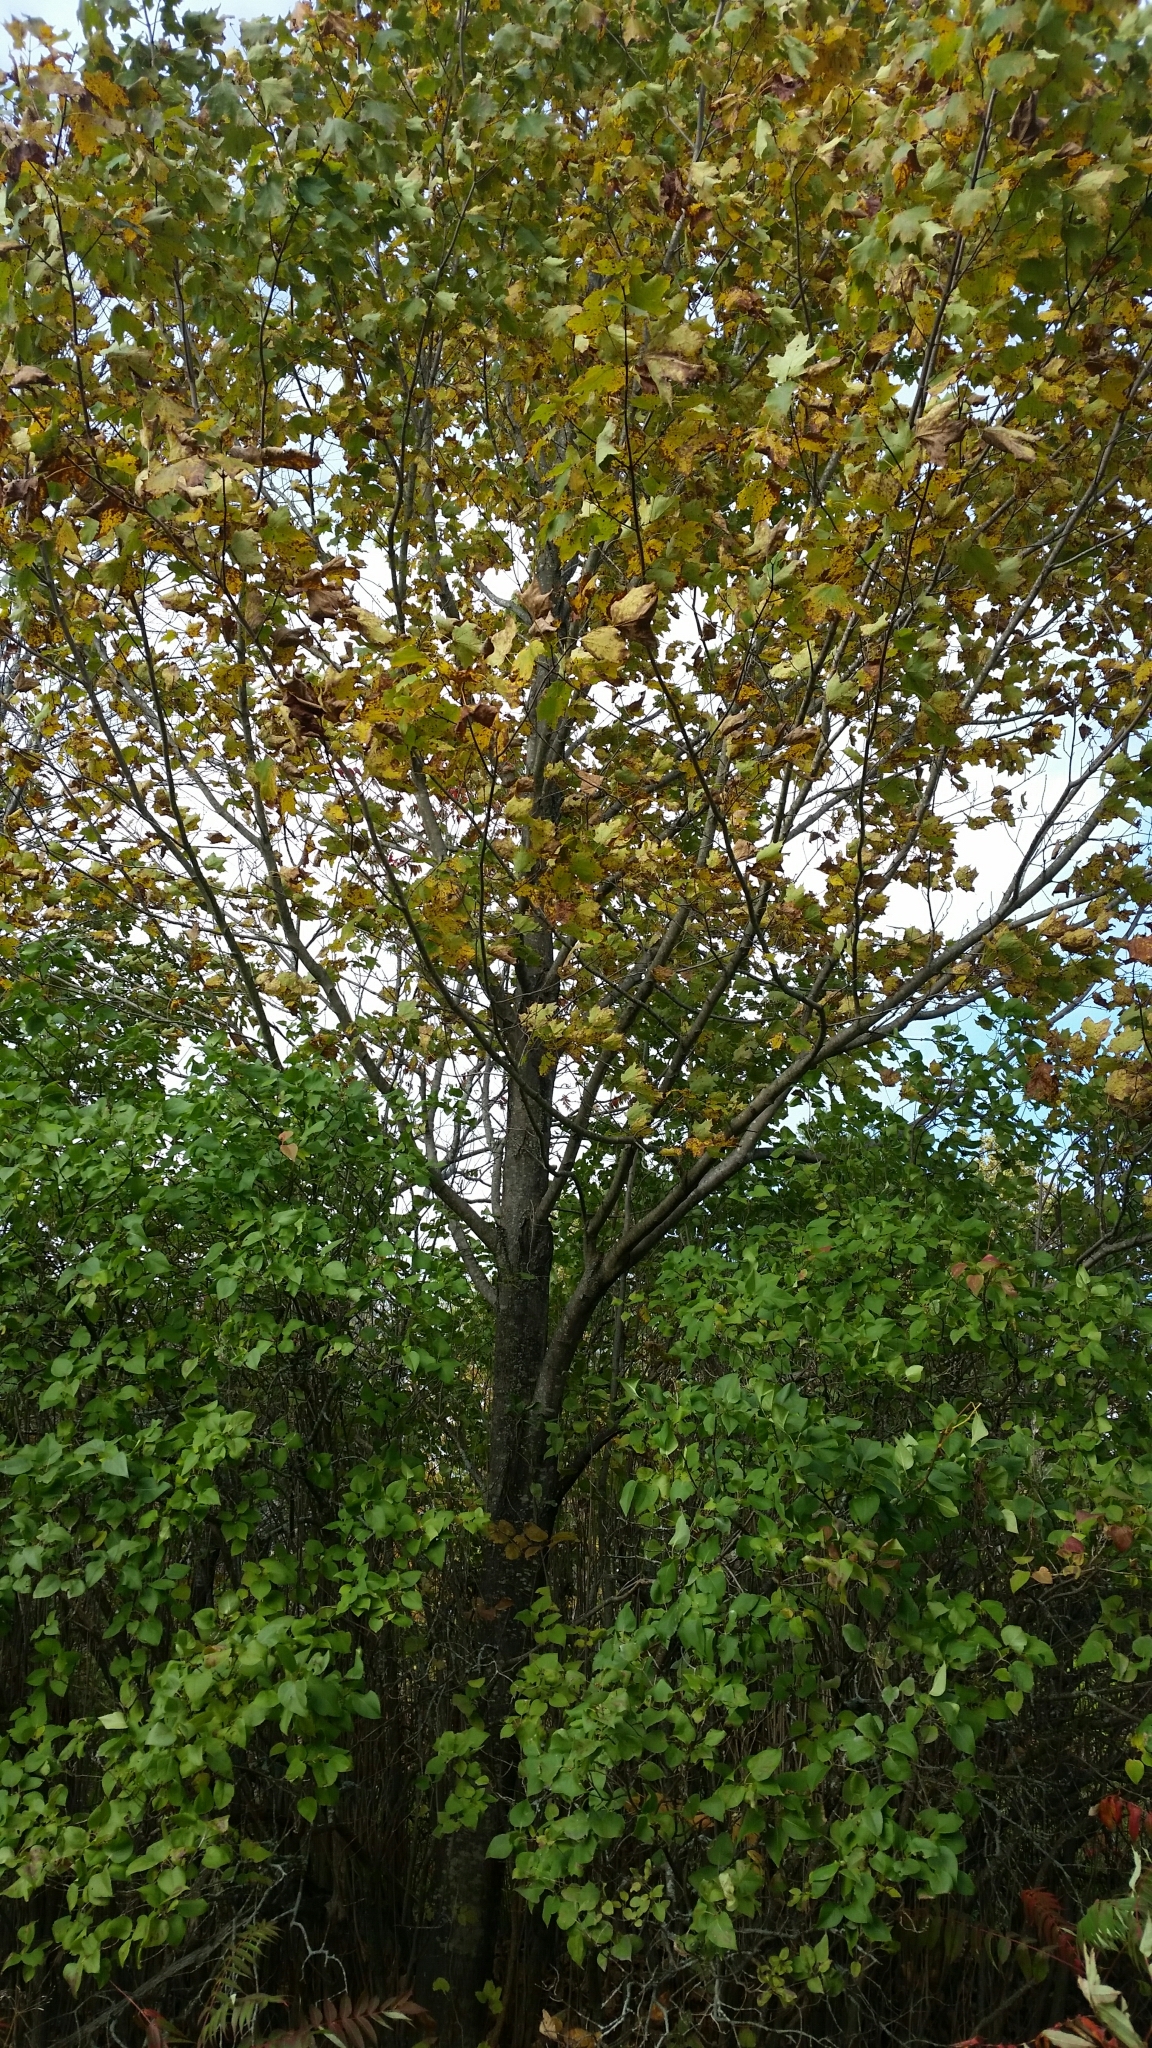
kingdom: Plantae
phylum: Tracheophyta
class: Magnoliopsida
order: Sapindales
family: Sapindaceae
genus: Acer
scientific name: Acer saccharum
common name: Sugar maple
